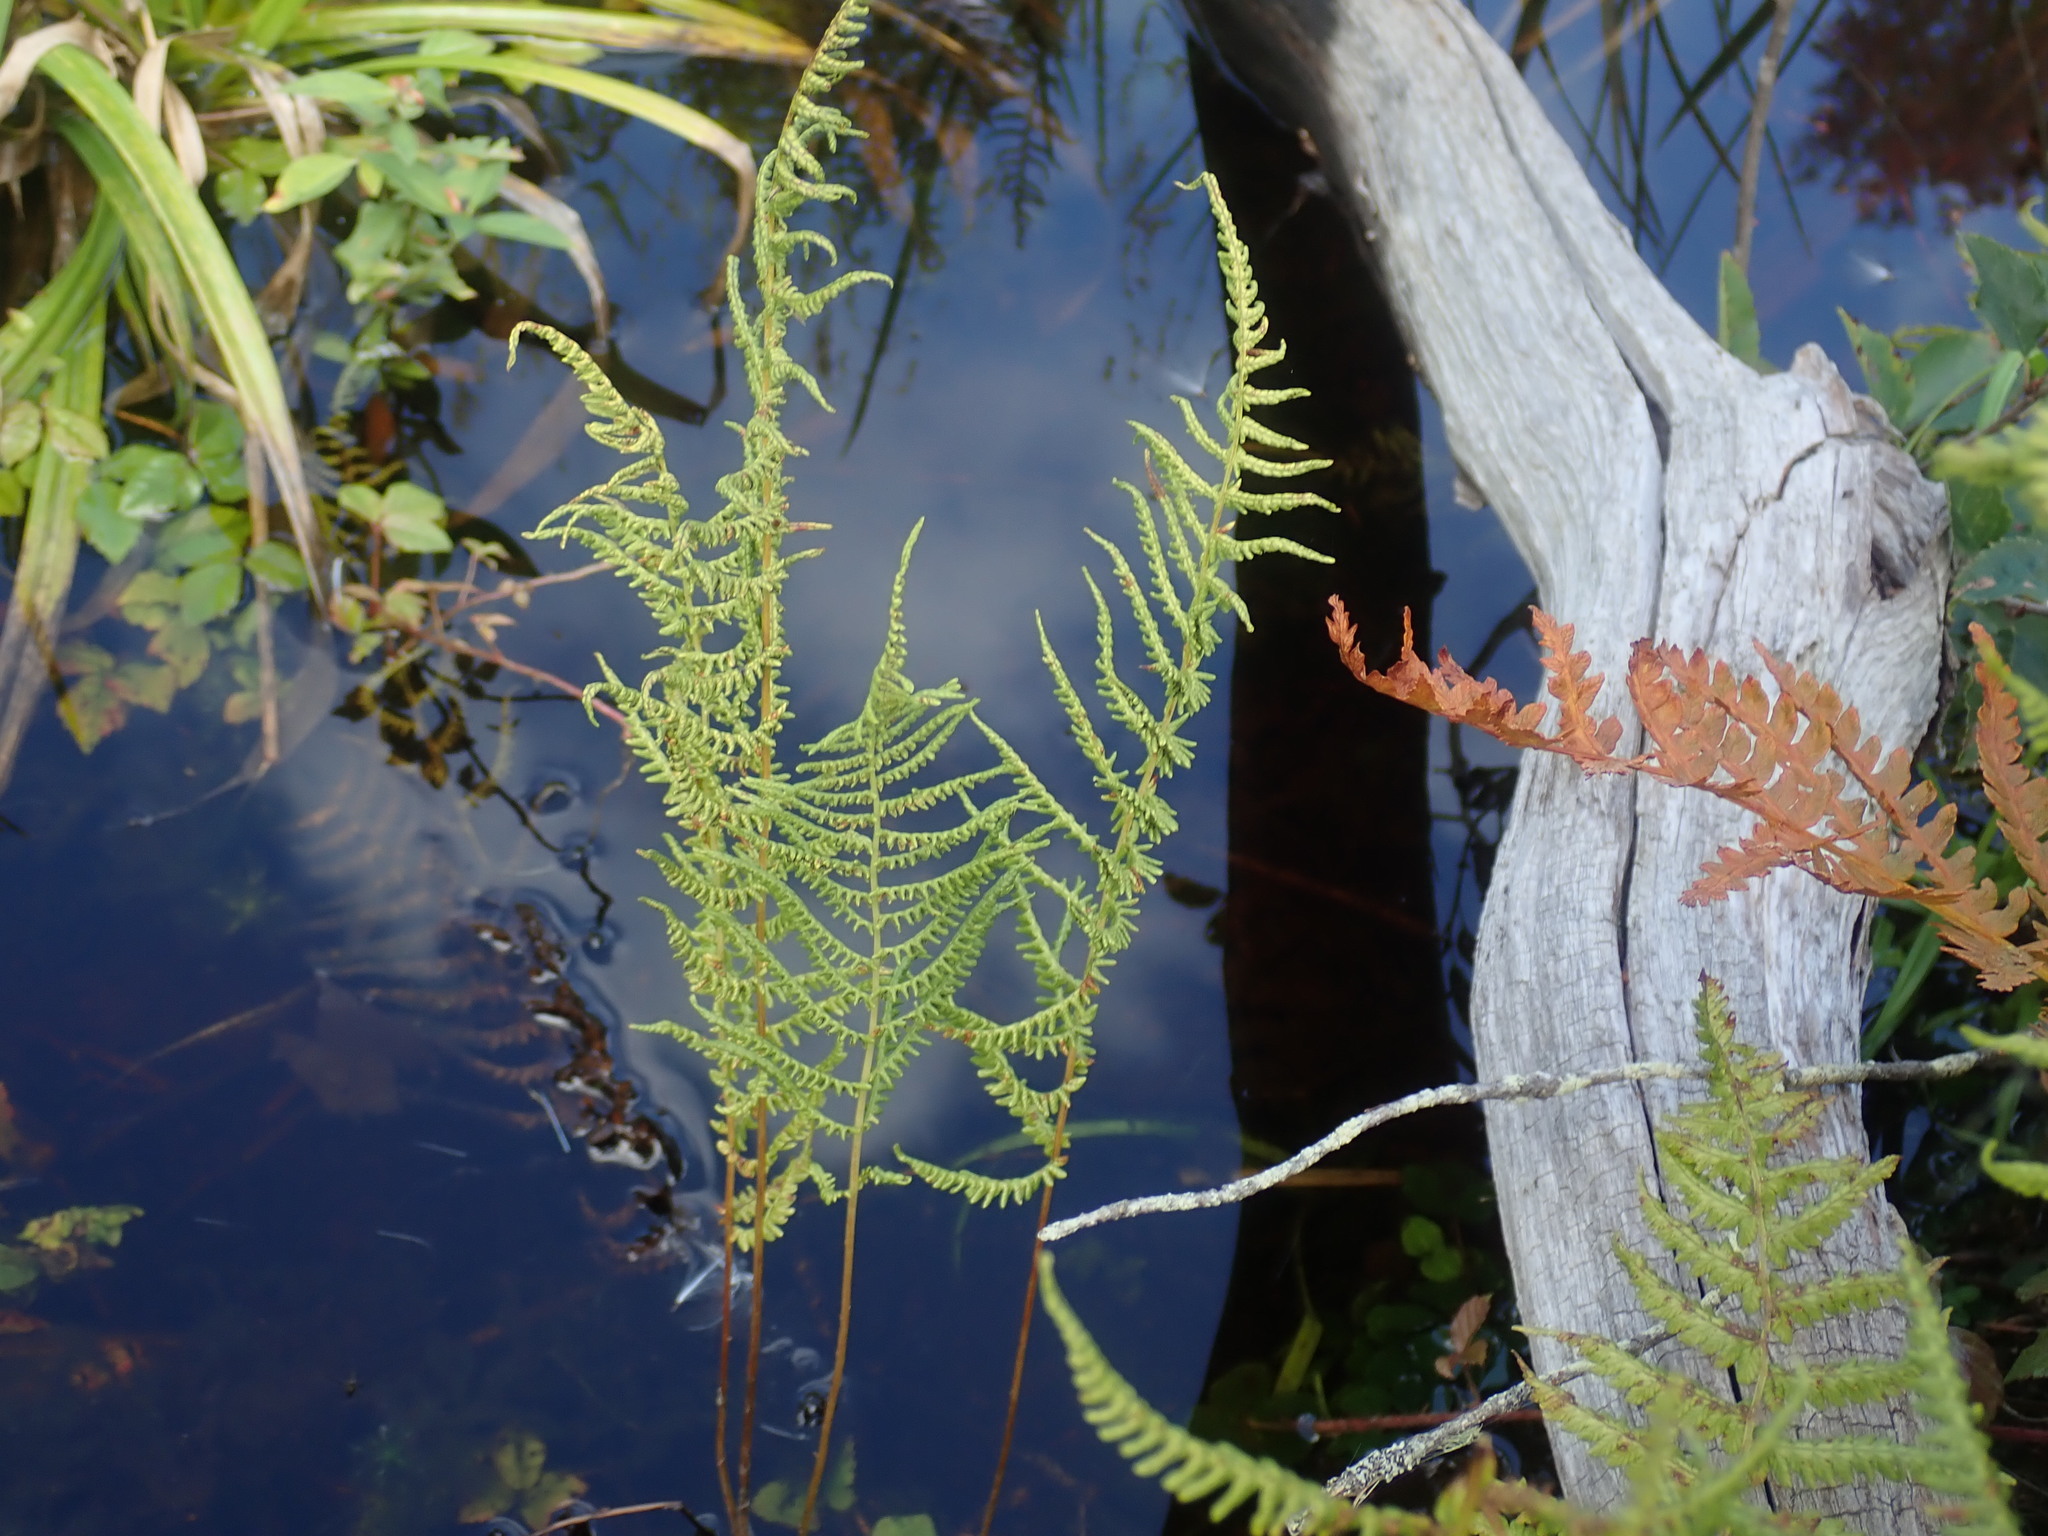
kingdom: Plantae
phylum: Tracheophyta
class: Polypodiopsida
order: Polypodiales
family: Thelypteridaceae
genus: Thelypteris
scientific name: Thelypteris palustris
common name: Marsh fern
